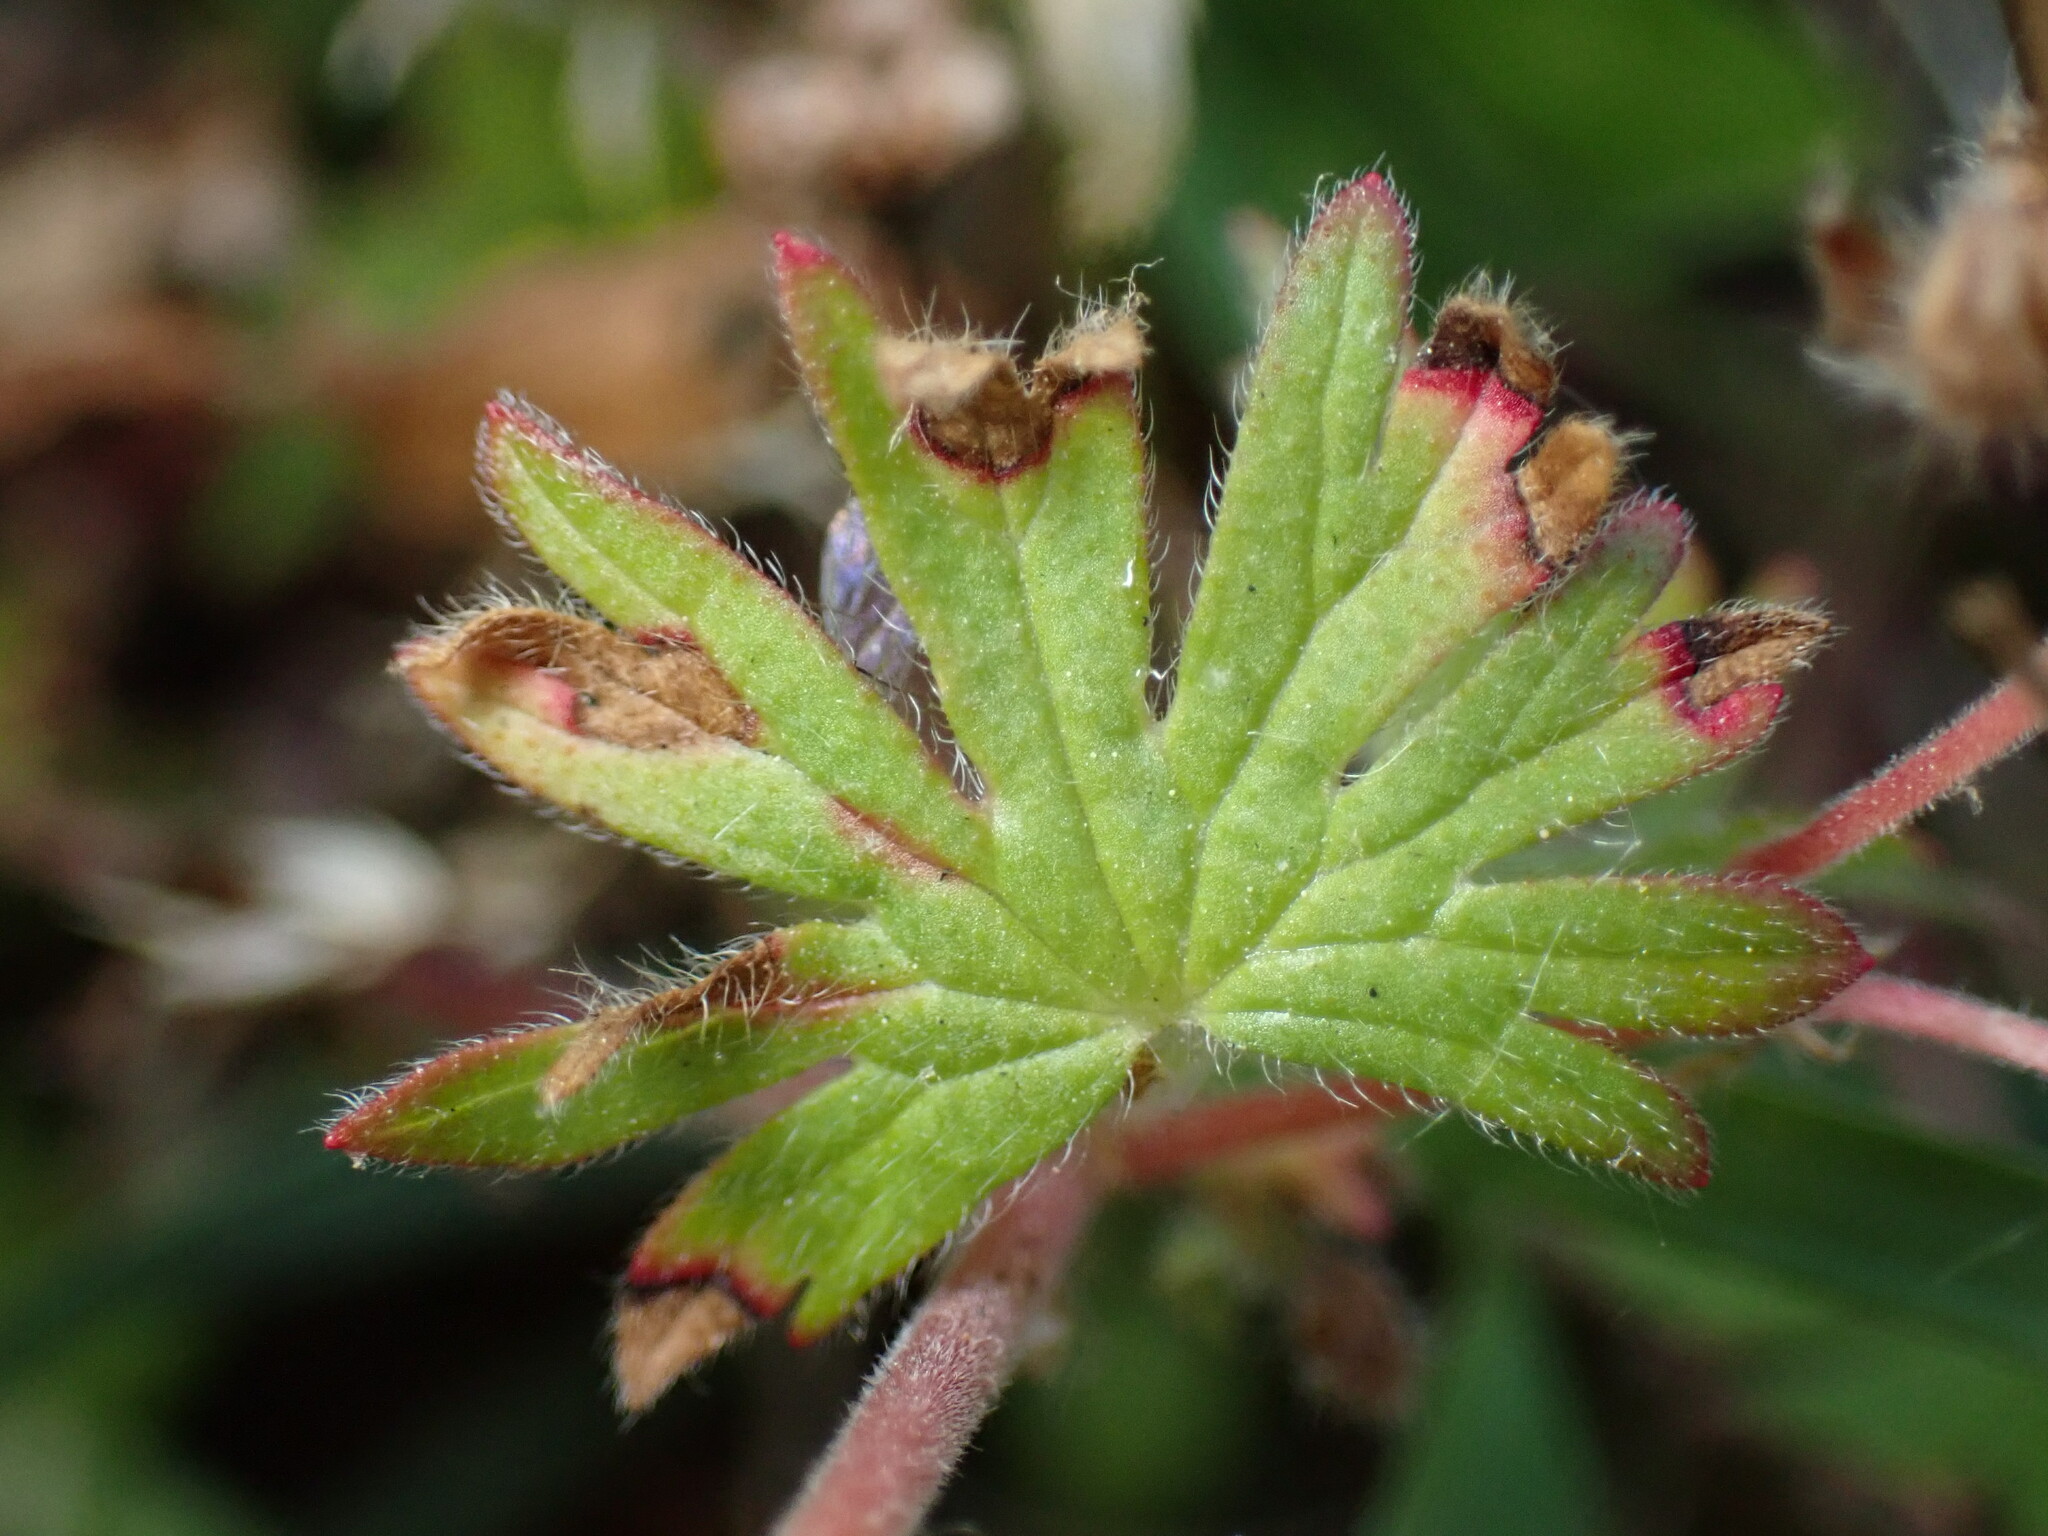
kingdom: Plantae
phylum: Tracheophyta
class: Magnoliopsida
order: Geraniales
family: Geraniaceae
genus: Geranium
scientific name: Geranium pusillum
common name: Small geranium
